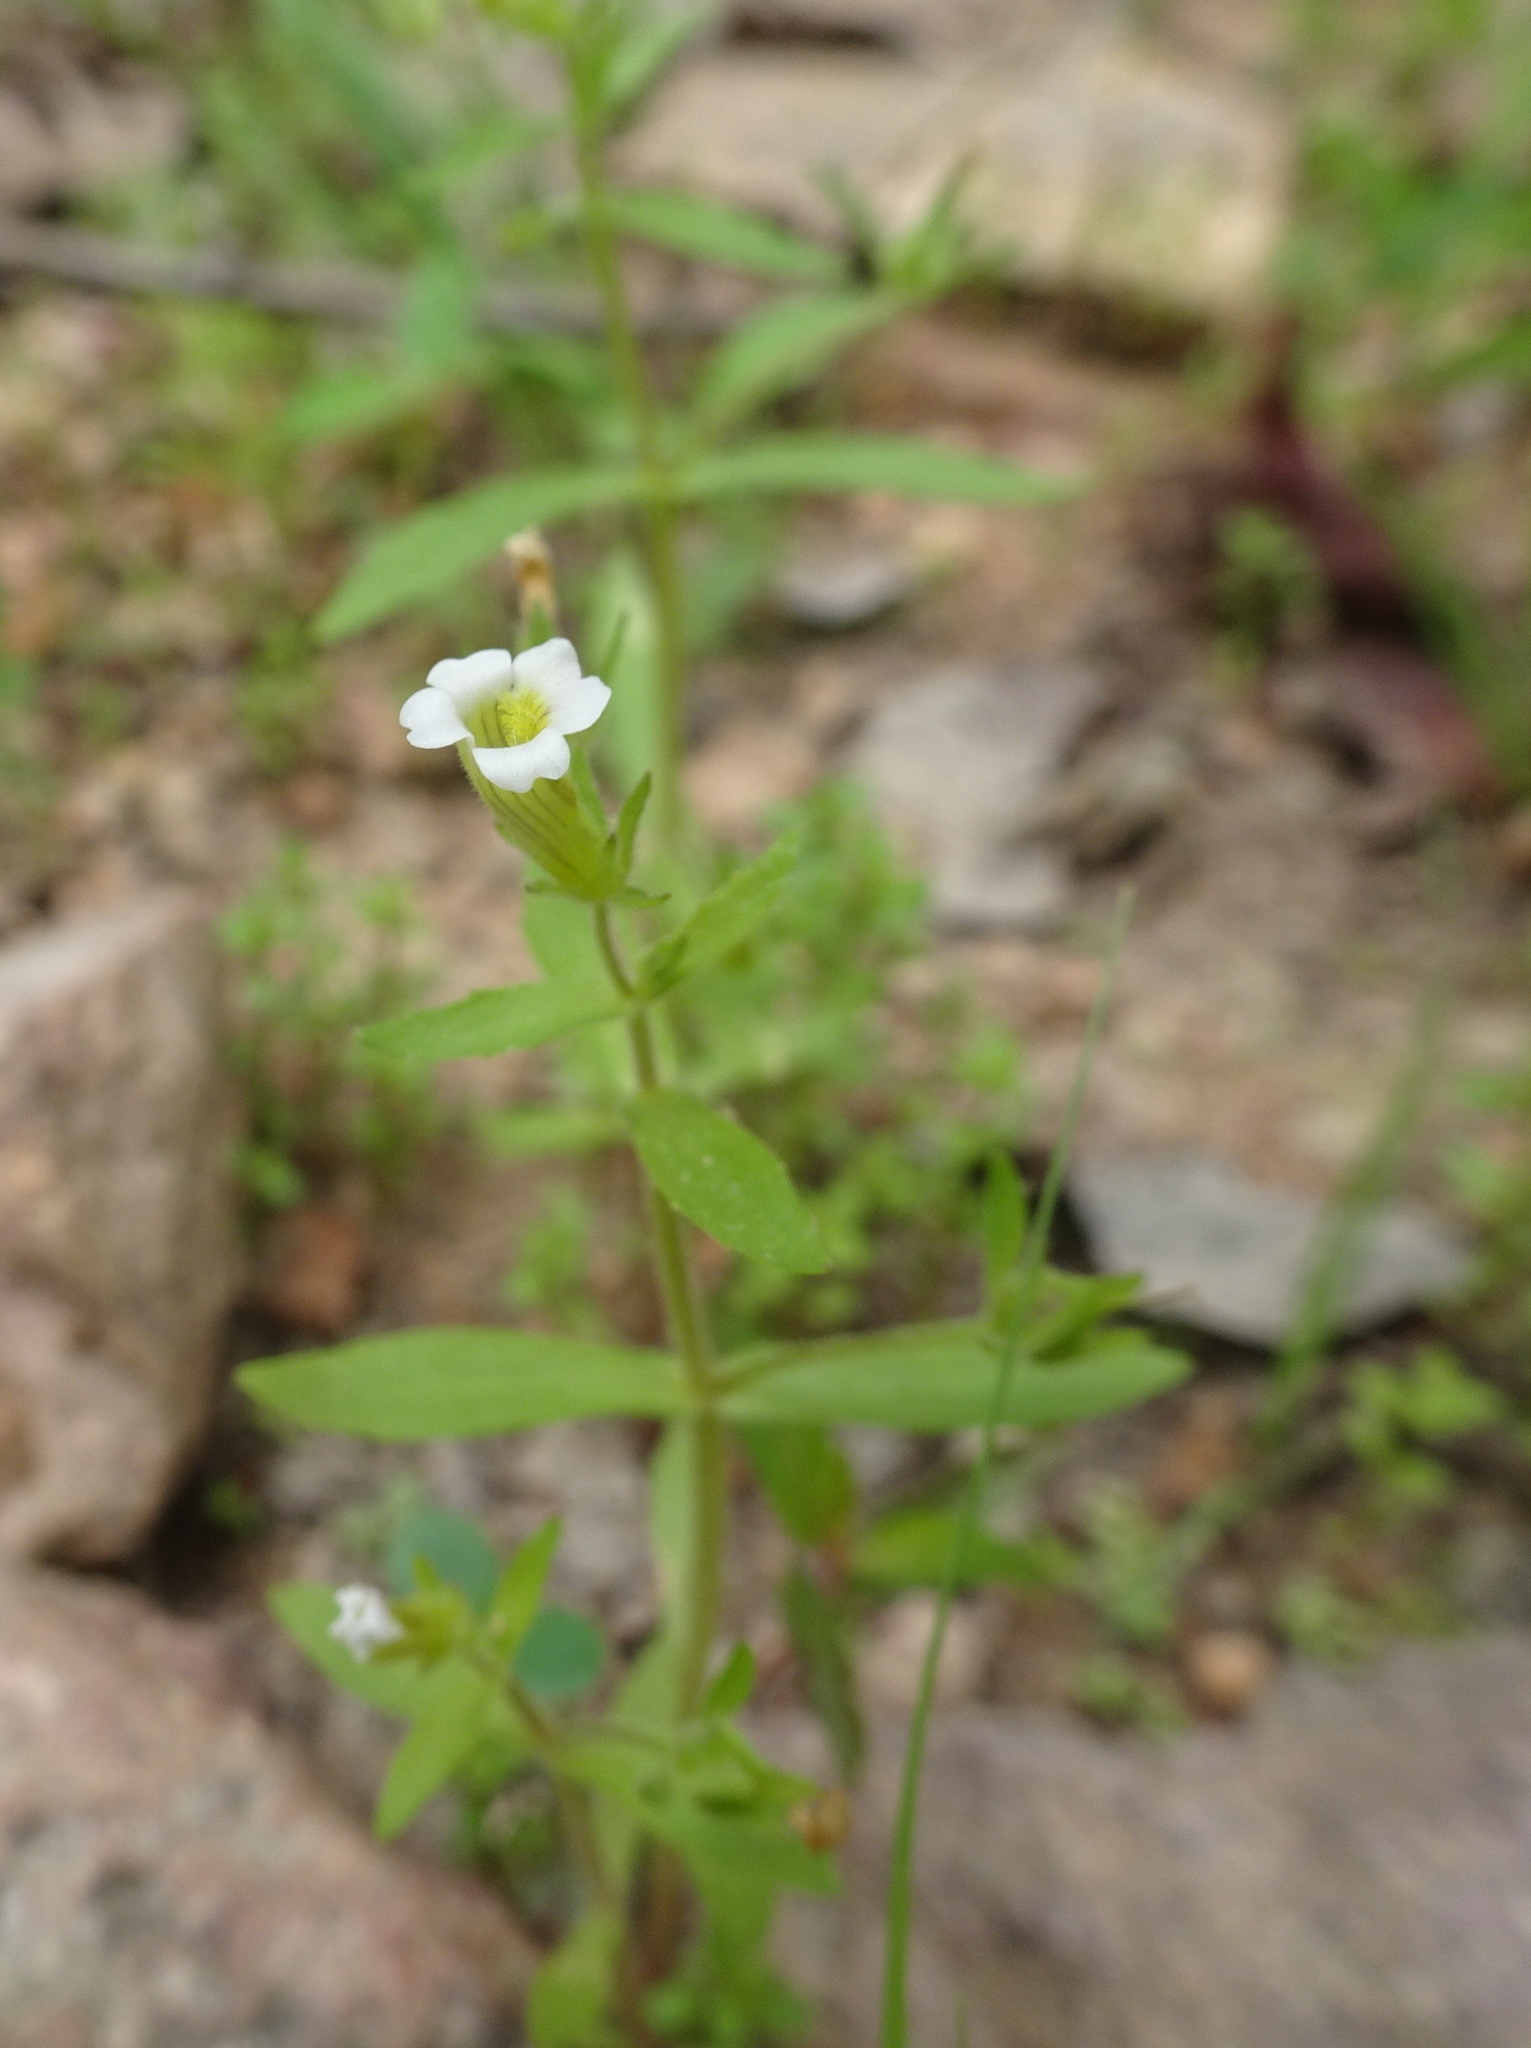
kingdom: Plantae
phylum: Tracheophyta
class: Magnoliopsida
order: Lamiales
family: Plantaginaceae
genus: Gratiola
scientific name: Gratiola neglecta
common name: American hedge-hyssop
